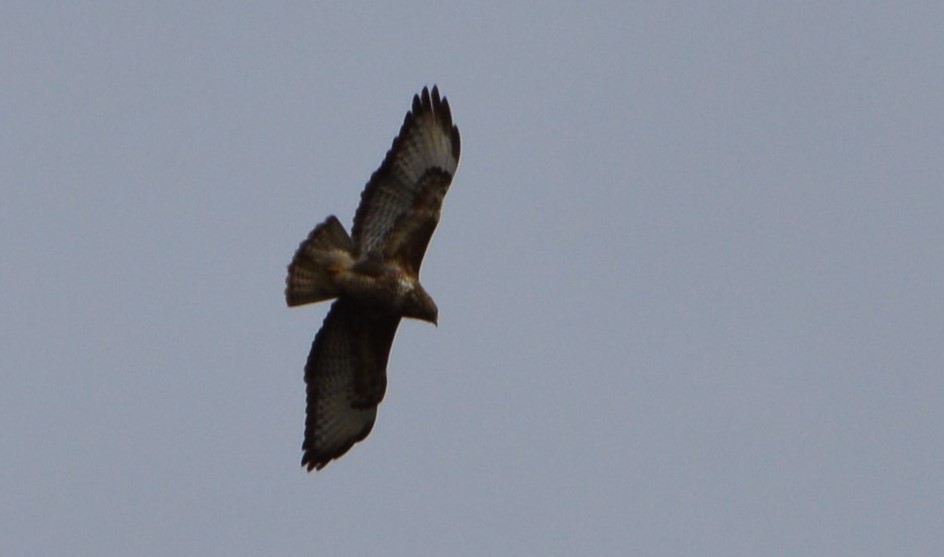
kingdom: Animalia
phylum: Chordata
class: Aves
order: Accipitriformes
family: Accipitridae
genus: Buteo
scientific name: Buteo buteo
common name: Common buzzard
